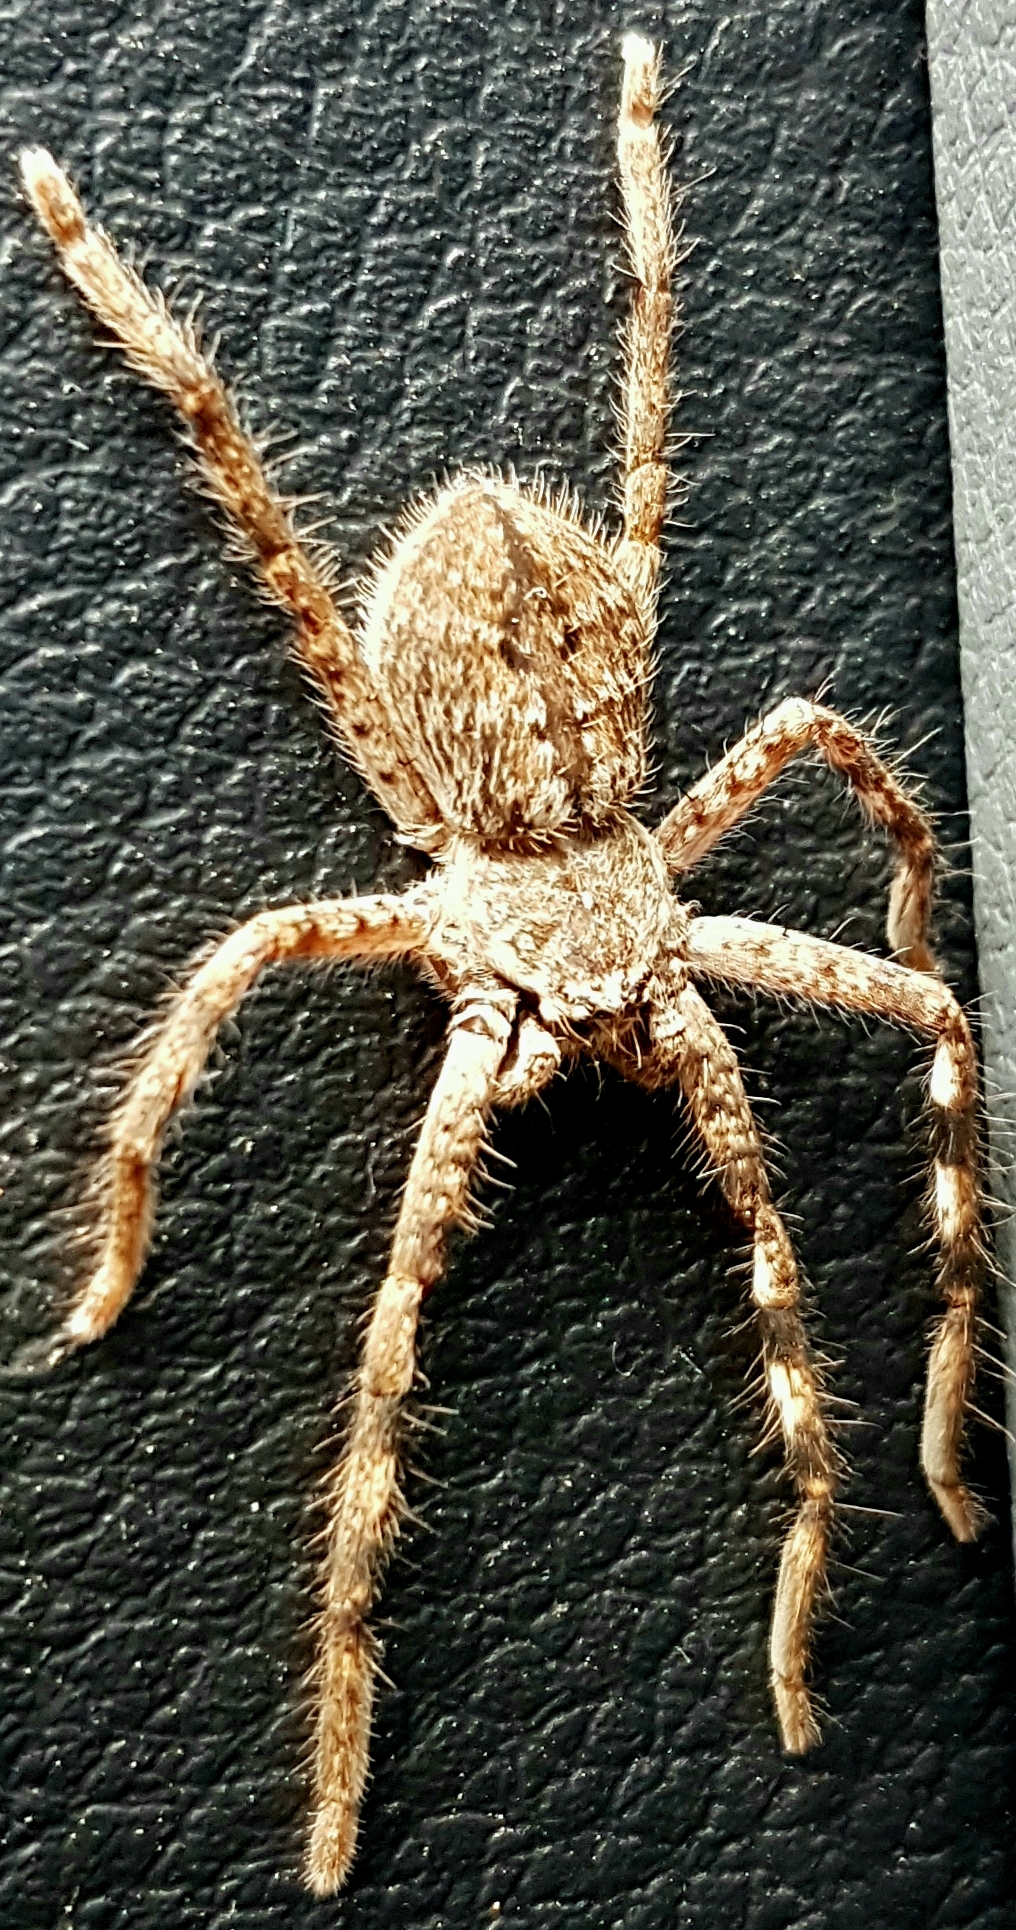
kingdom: Animalia
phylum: Arthropoda
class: Arachnida
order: Araneae
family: Sparassidae
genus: Isopedella
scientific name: Isopedella victorialis
